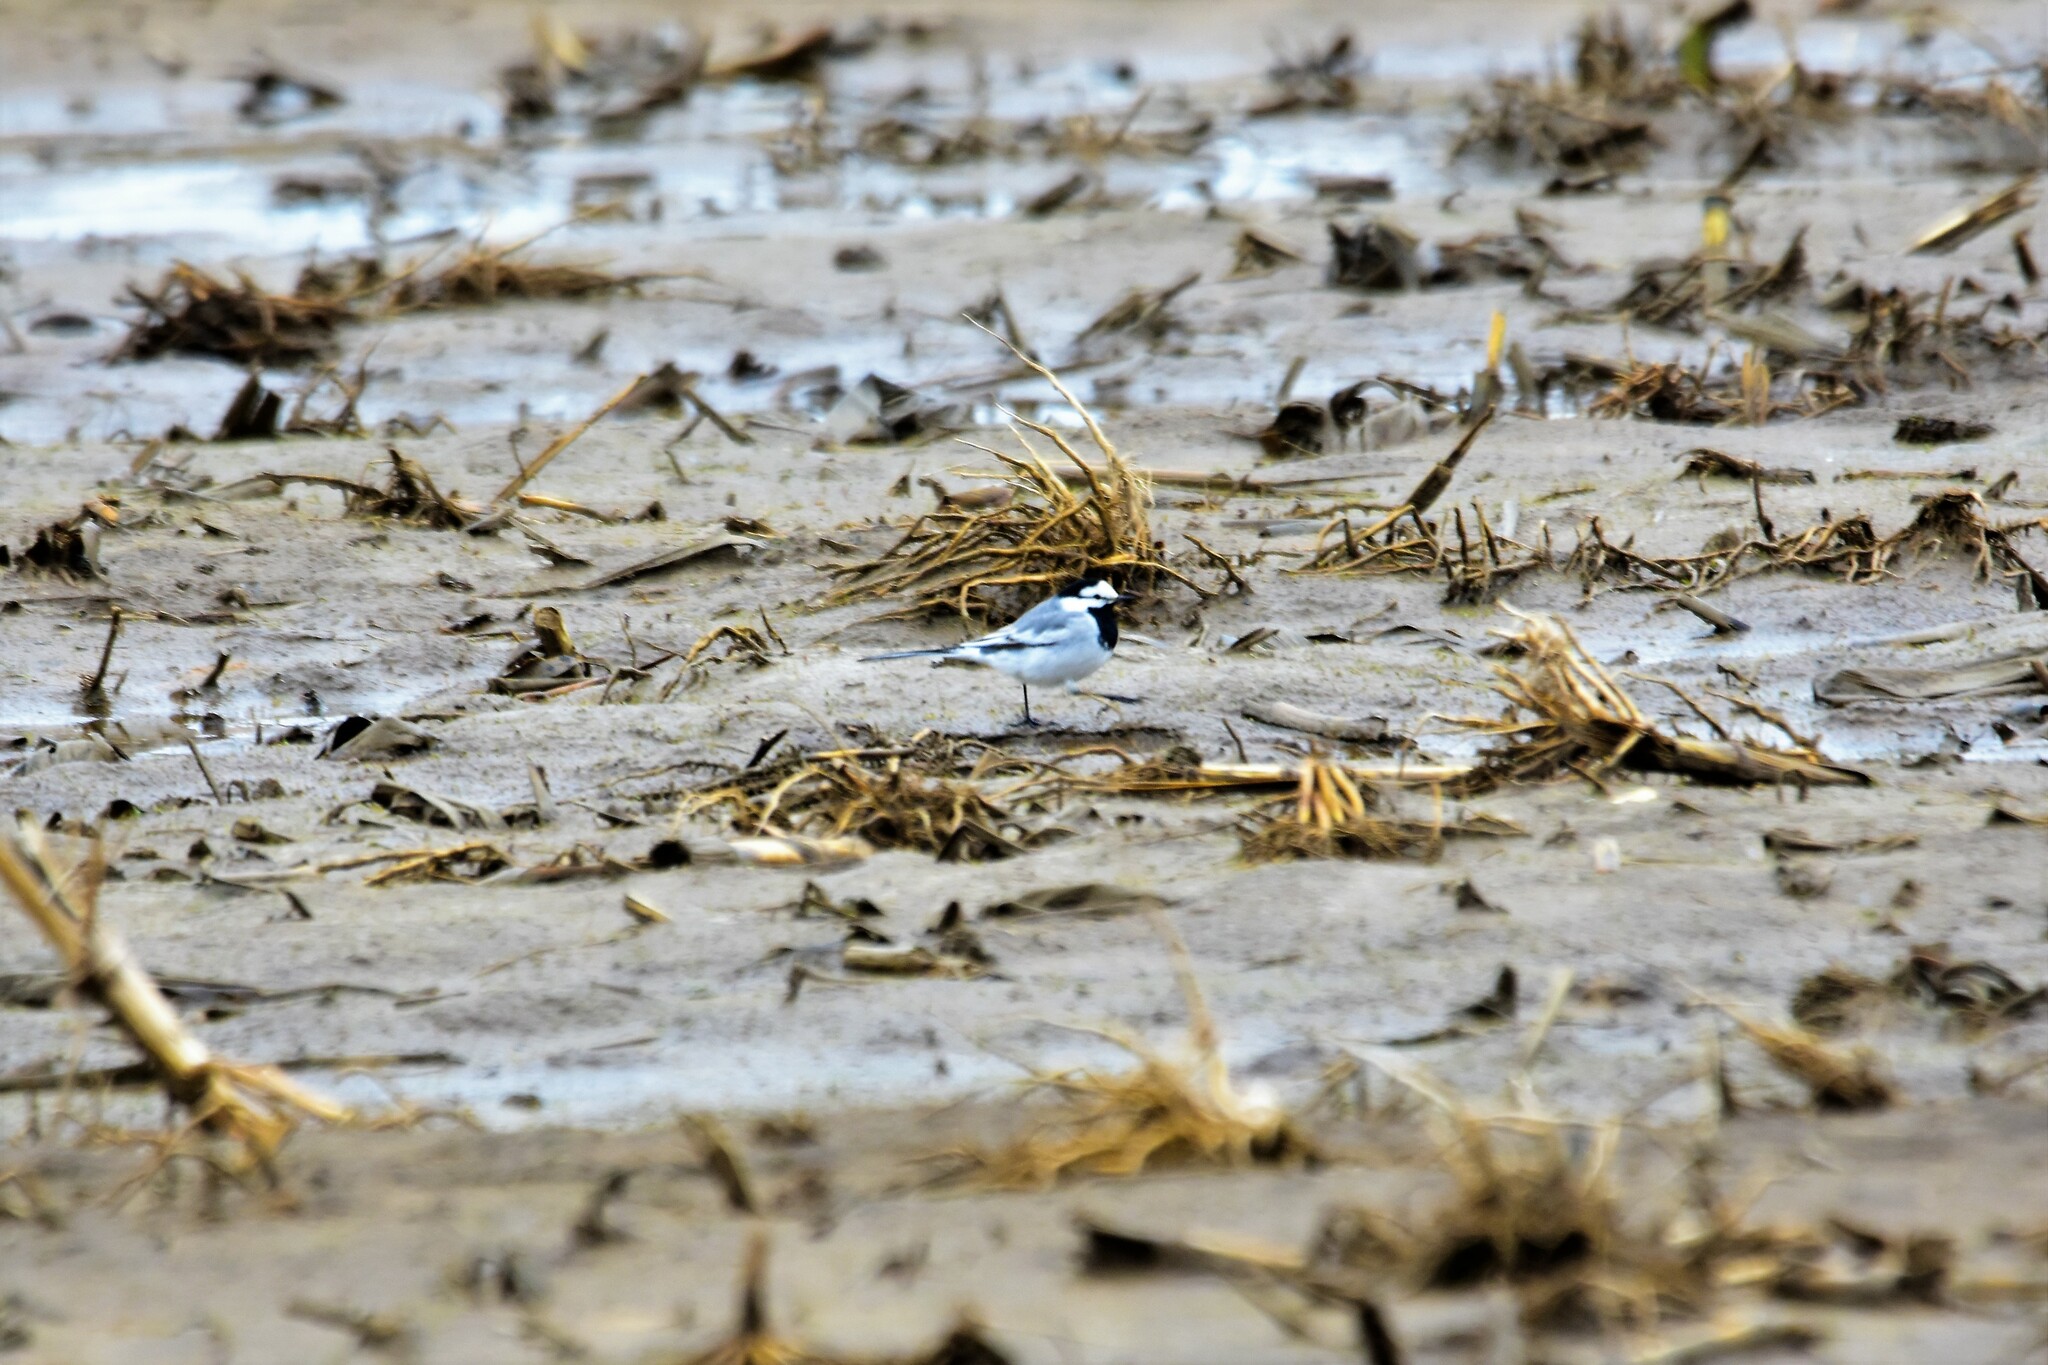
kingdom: Animalia
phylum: Chordata
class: Aves
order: Passeriformes
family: Motacillidae
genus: Motacilla
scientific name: Motacilla alba
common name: White wagtail
